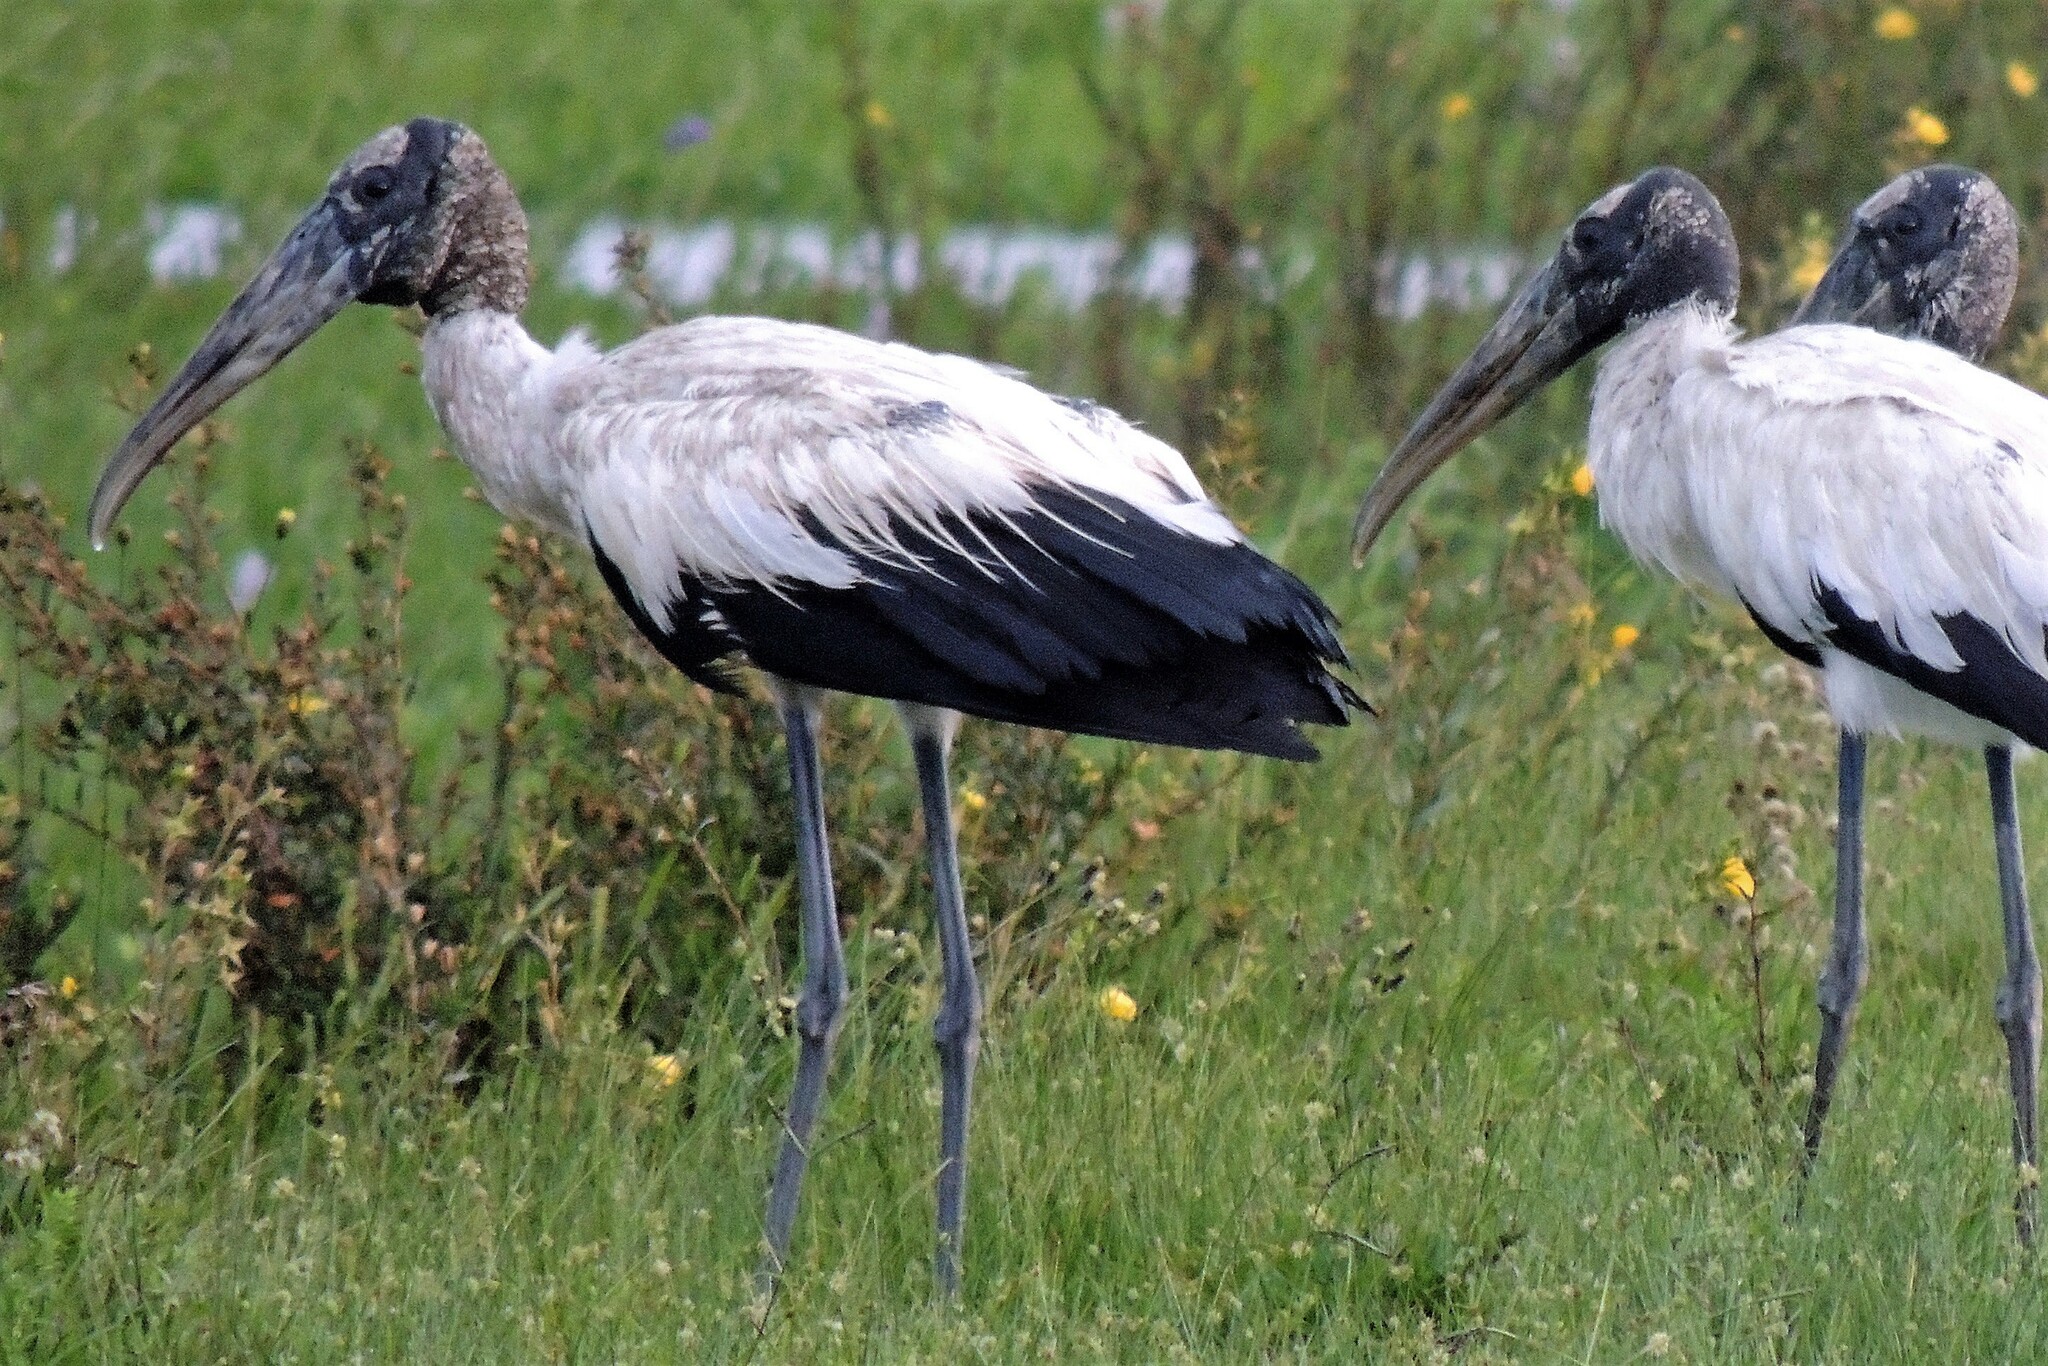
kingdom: Animalia
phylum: Chordata
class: Aves
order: Ciconiiformes
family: Ciconiidae
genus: Mycteria
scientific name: Mycteria americana
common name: Wood stork
